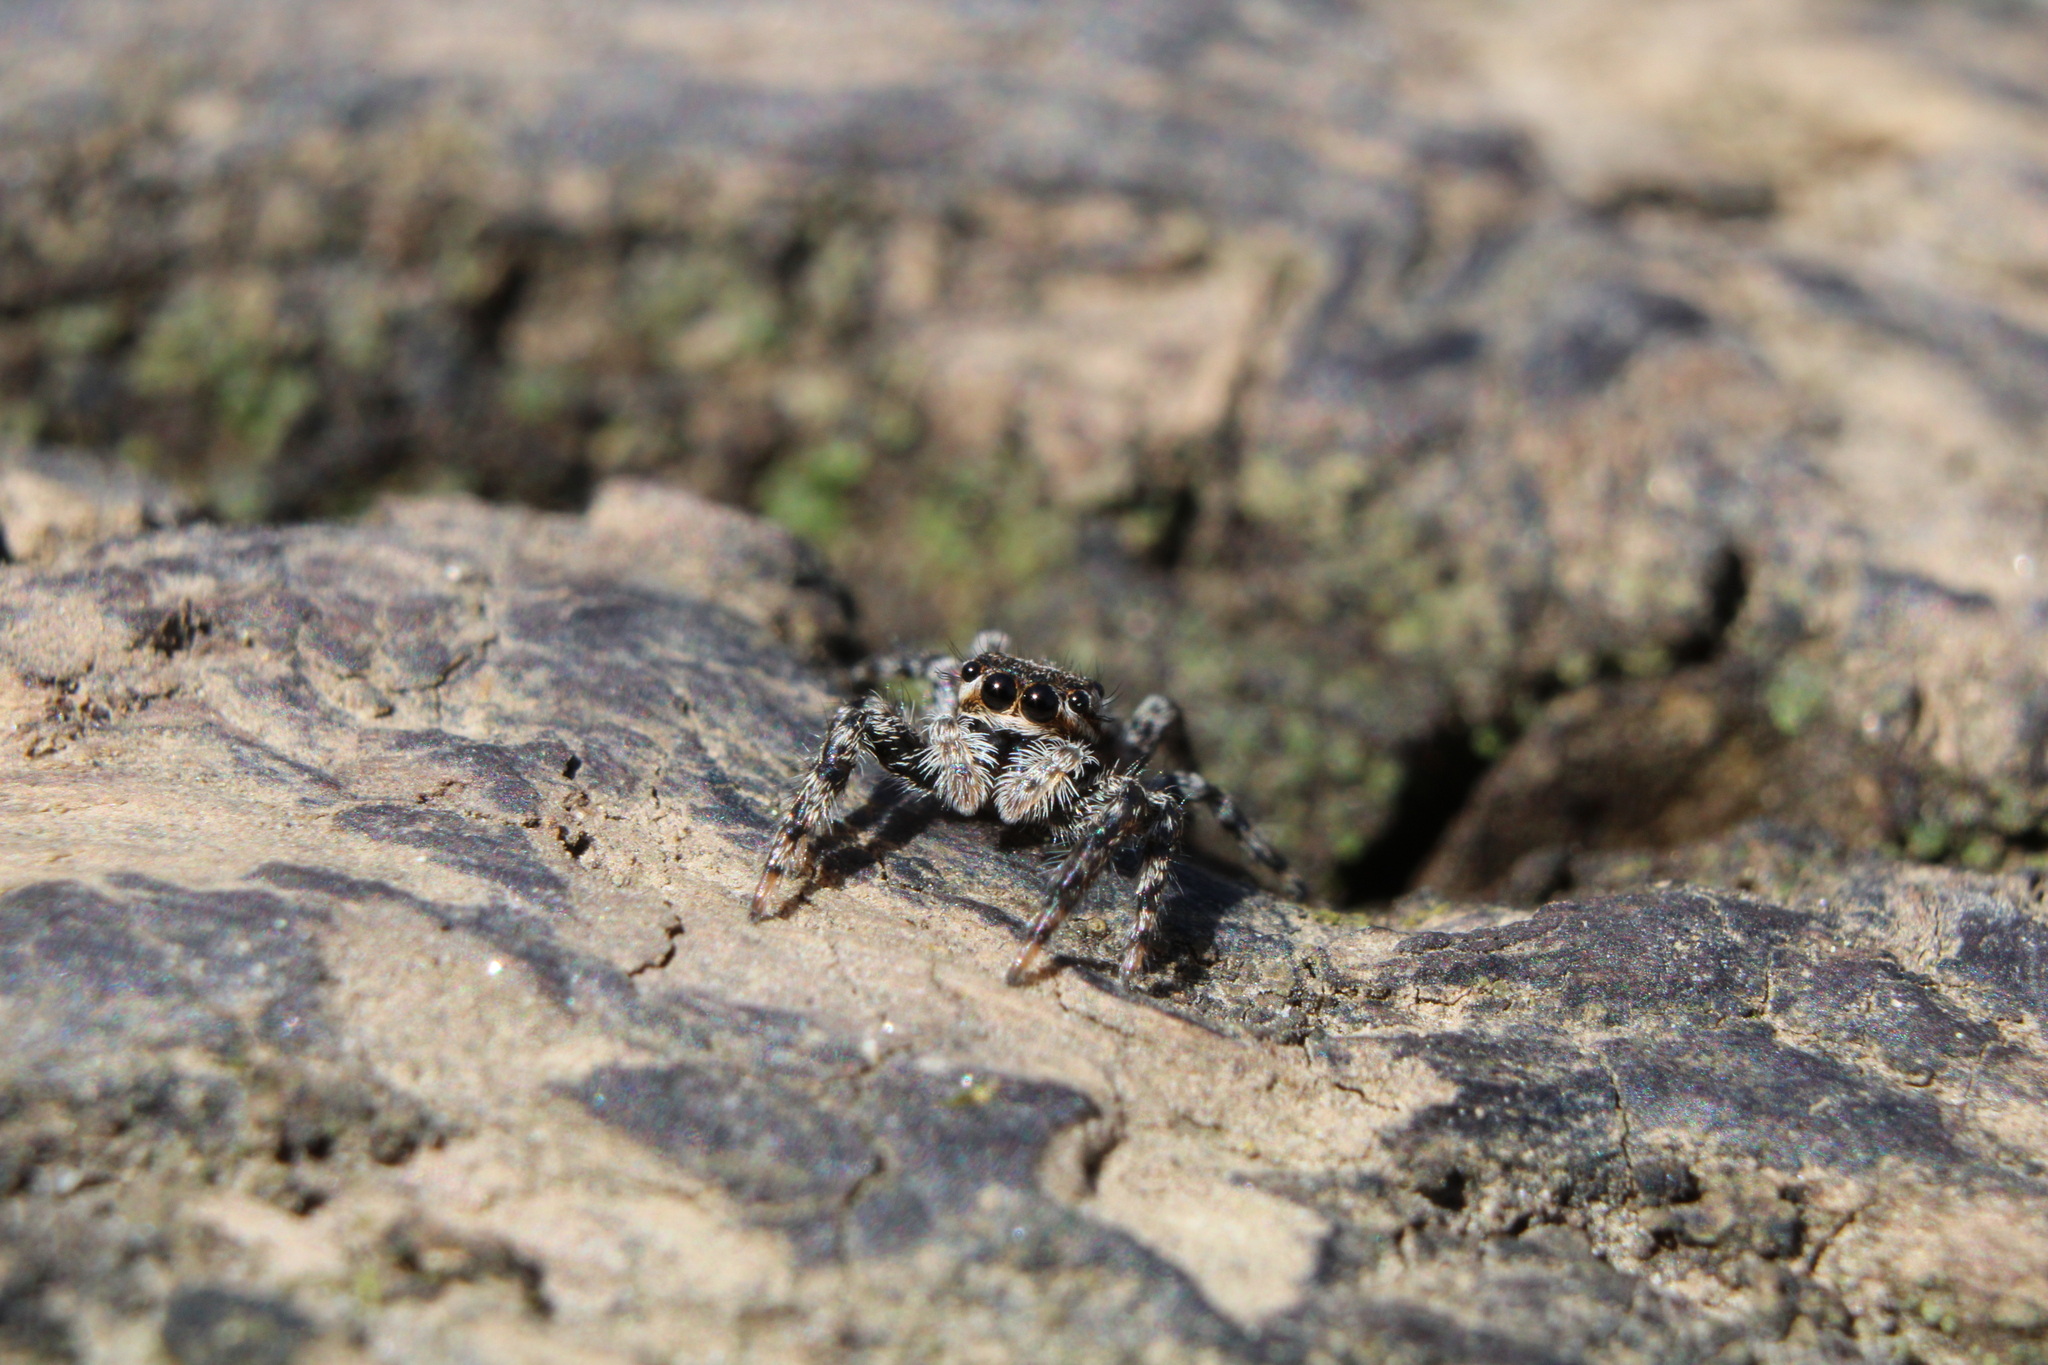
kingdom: Animalia
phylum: Arthropoda
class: Arachnida
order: Araneae
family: Salticidae
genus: Platycryptus
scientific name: Platycryptus undatus
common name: Tan jumping spider
